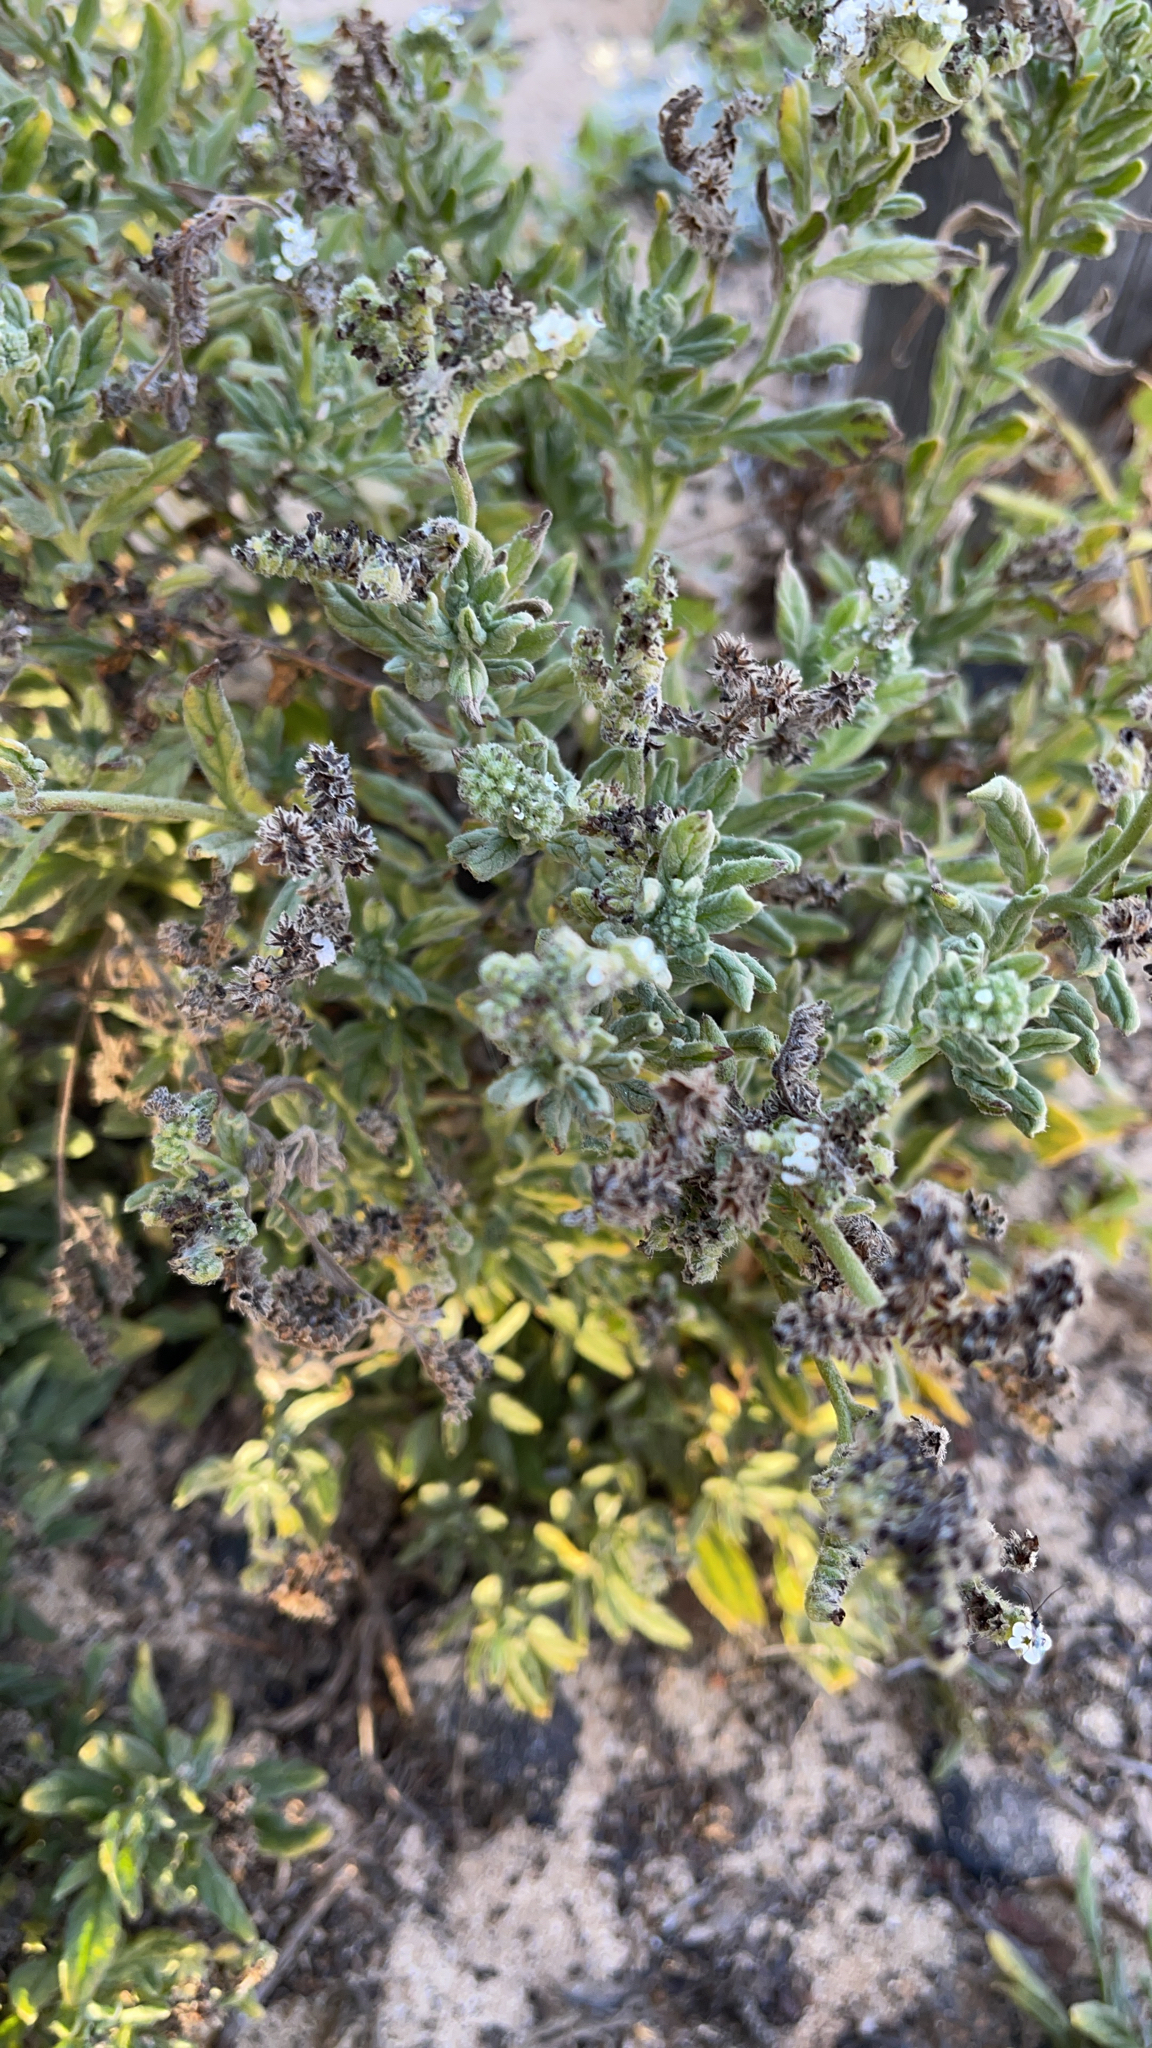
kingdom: Plantae
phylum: Tracheophyta
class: Magnoliopsida
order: Boraginales
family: Heliotropiaceae
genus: Heliotropium
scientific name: Heliotropium ramosissimum
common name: Wavy heliotrope
